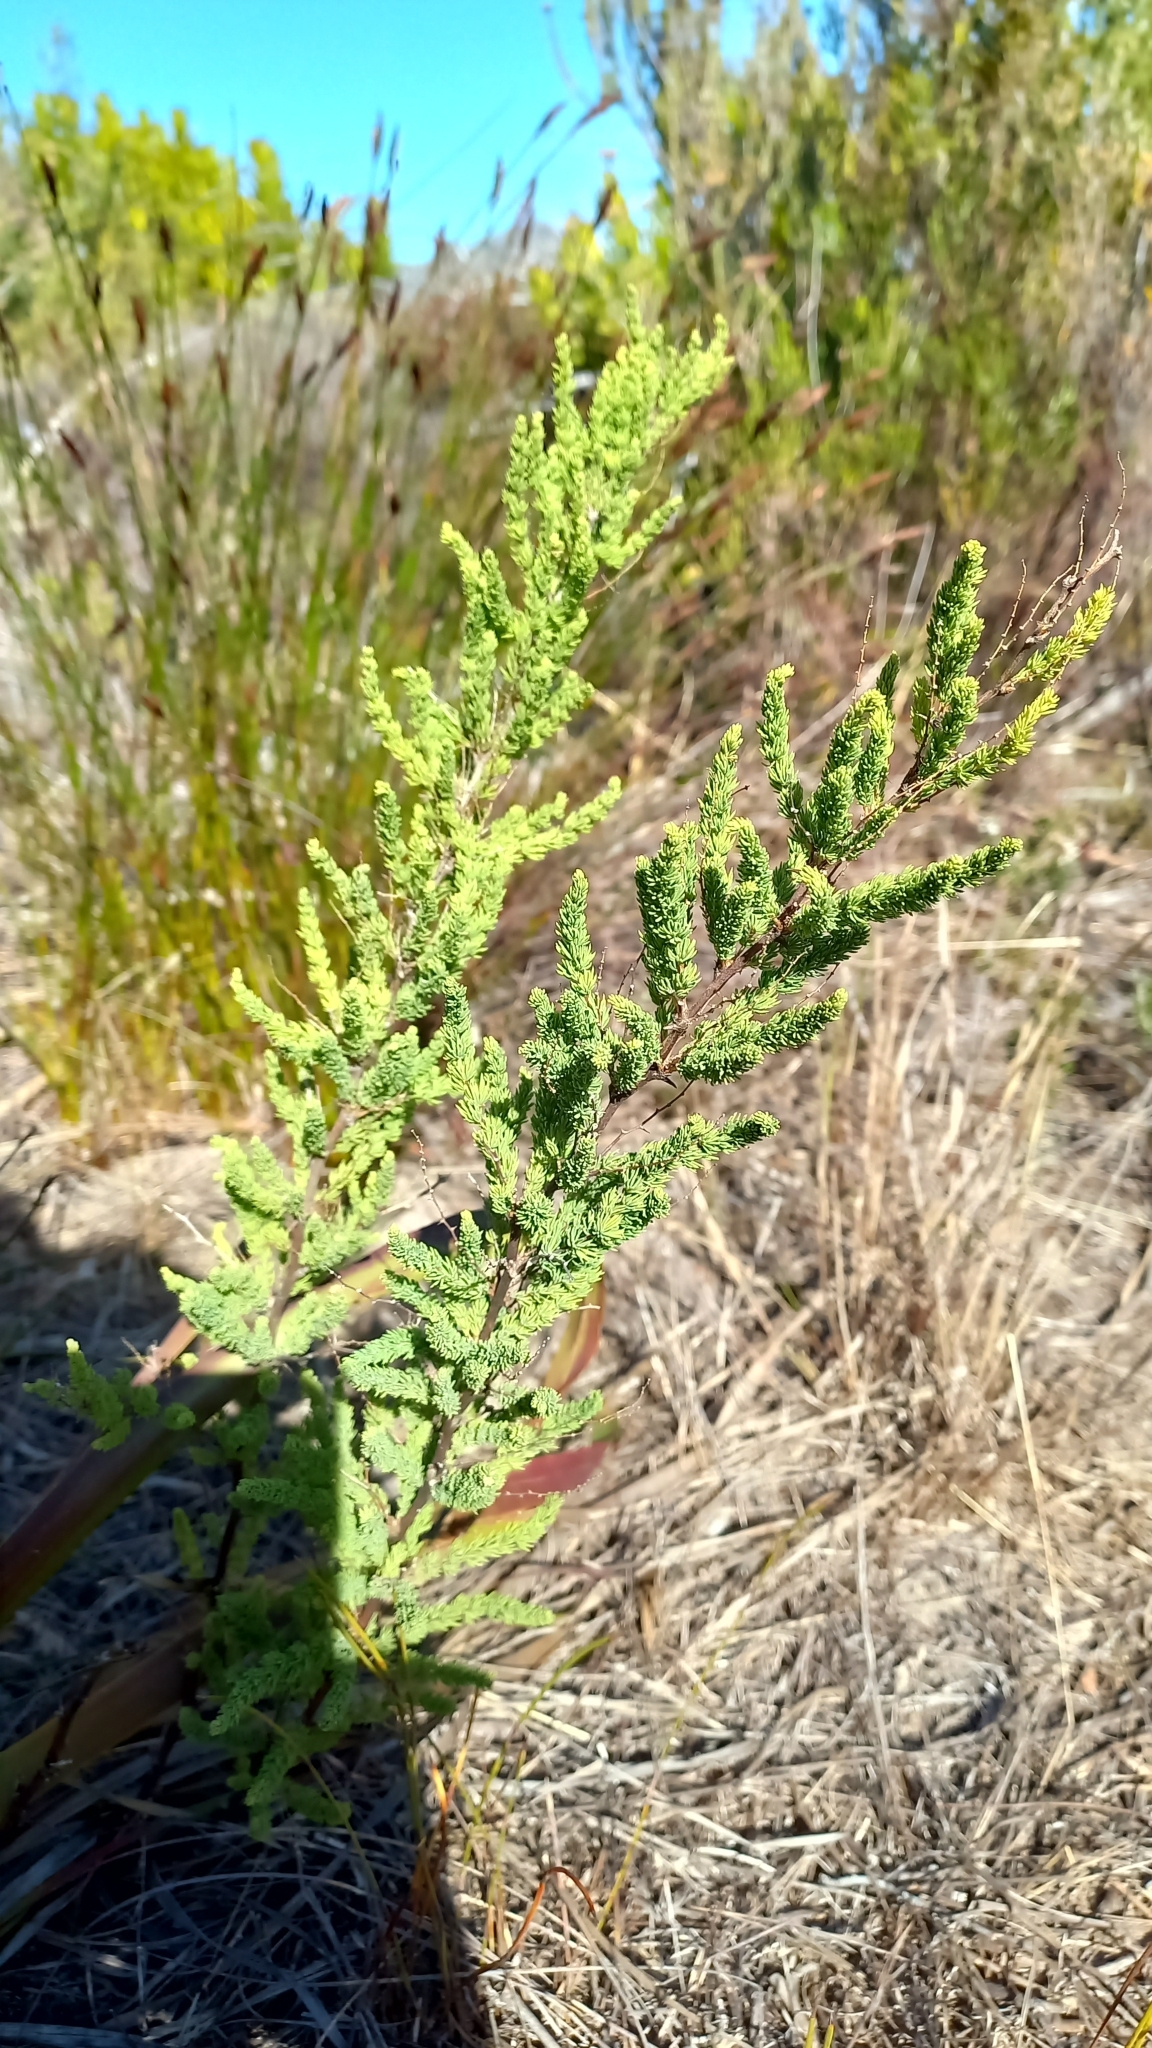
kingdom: Plantae
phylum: Tracheophyta
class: Liliopsida
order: Asparagales
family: Asparagaceae
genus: Asparagus
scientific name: Asparagus rubicundus
